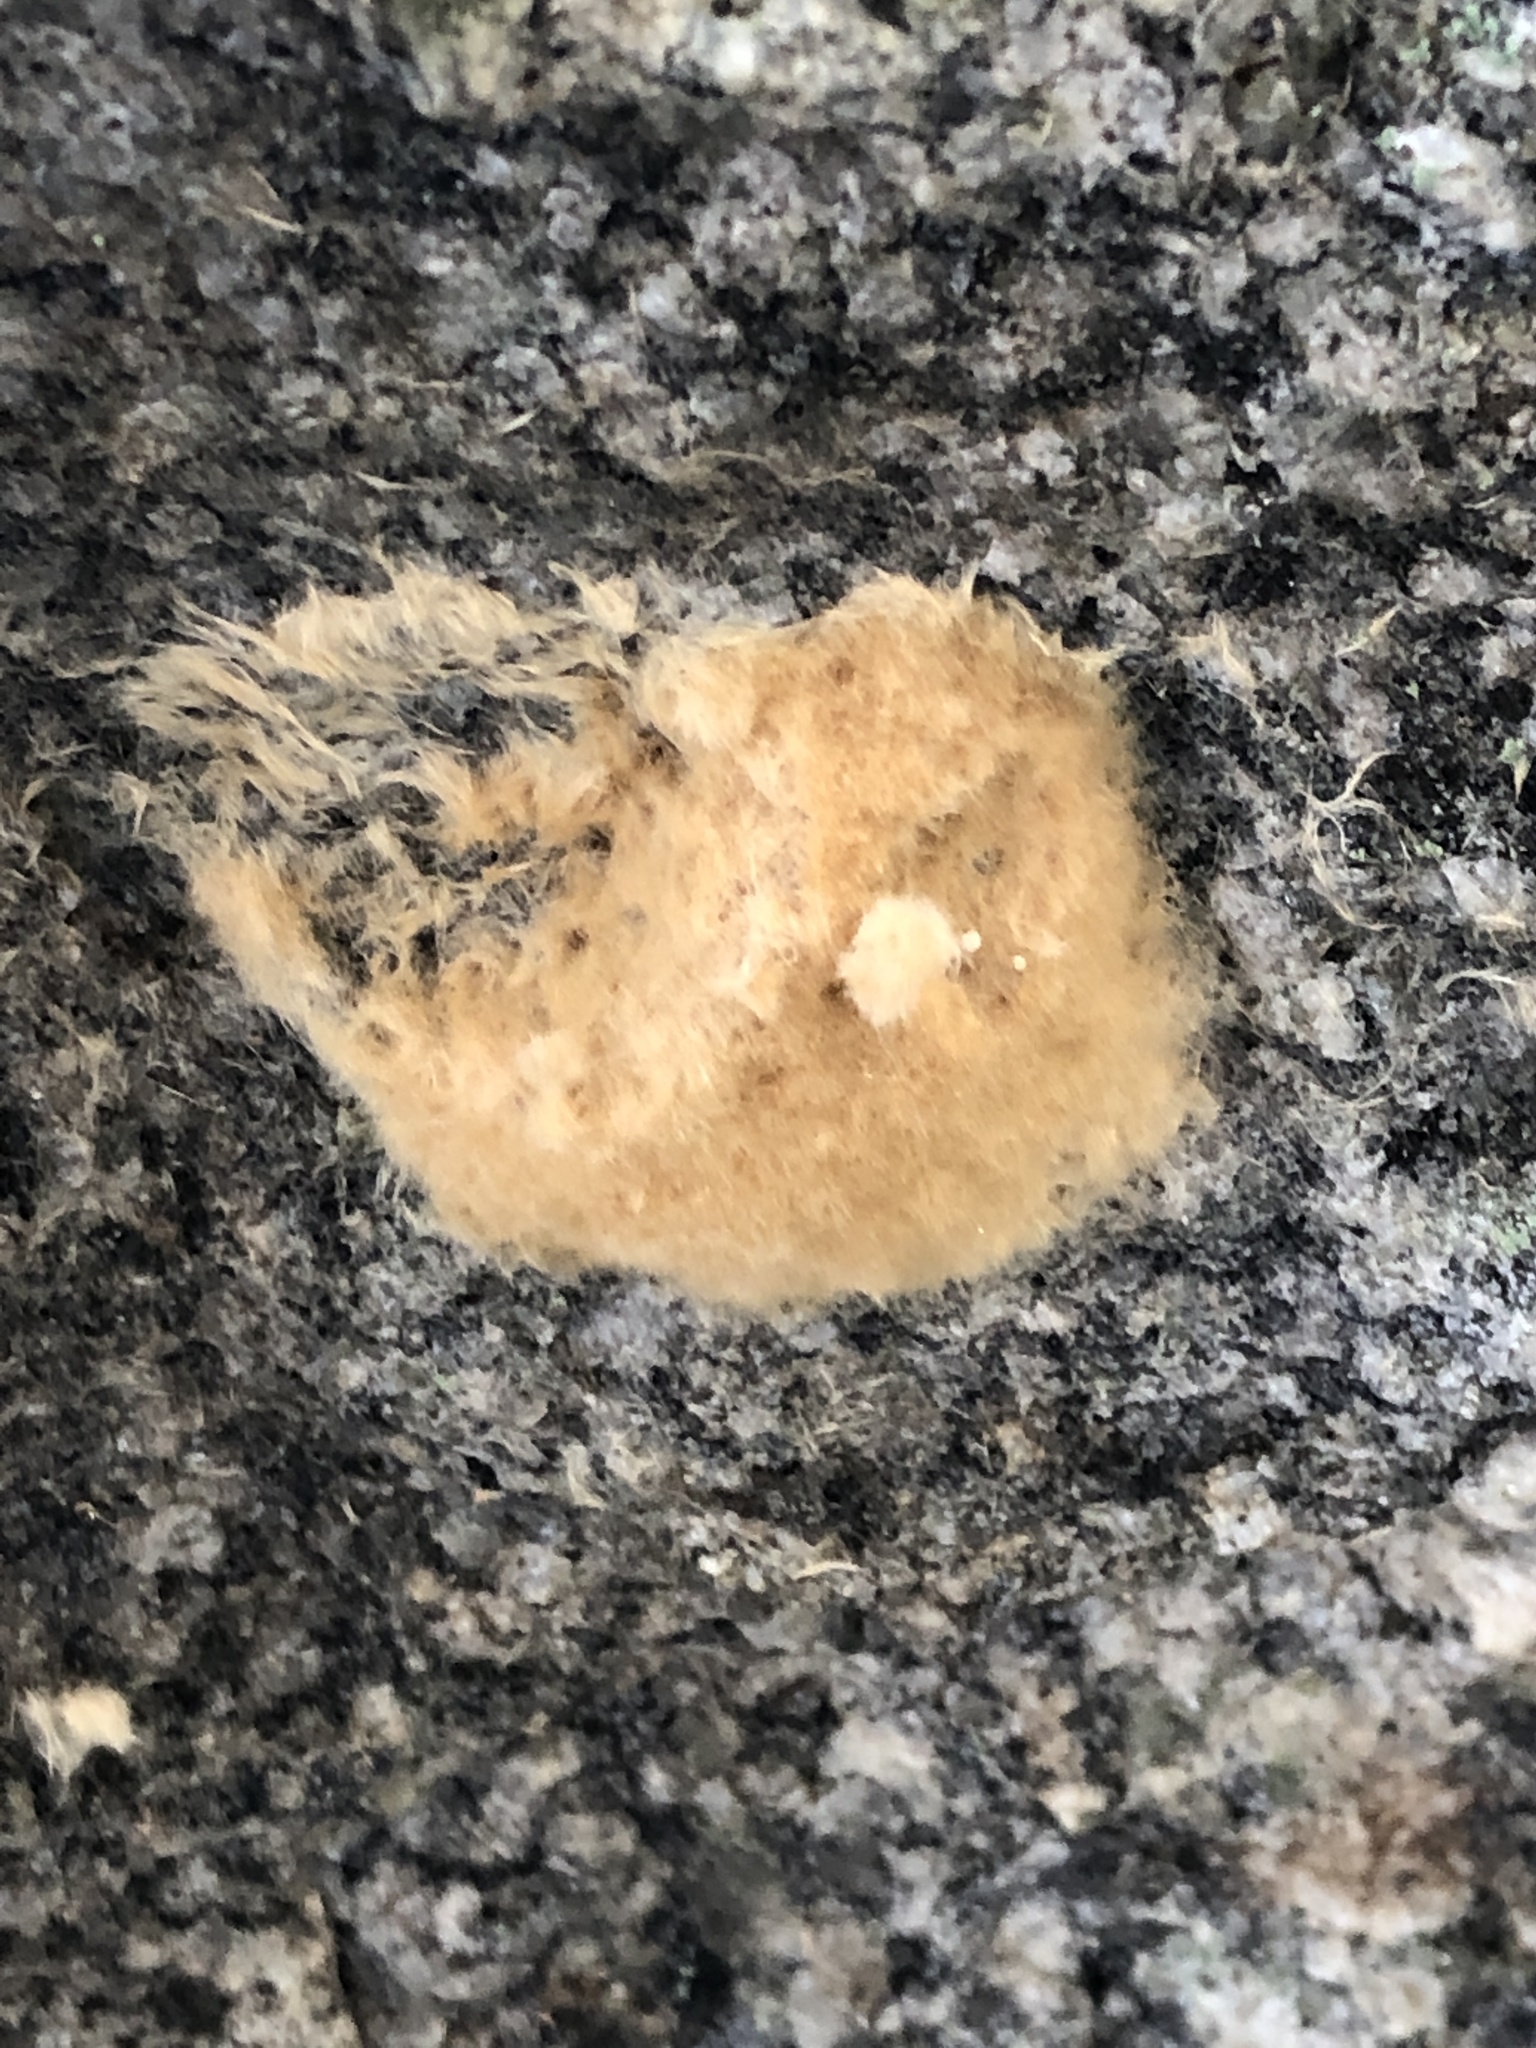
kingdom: Animalia
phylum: Arthropoda
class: Insecta
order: Lepidoptera
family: Erebidae
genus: Lymantria
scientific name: Lymantria dispar
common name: Gypsy moth
